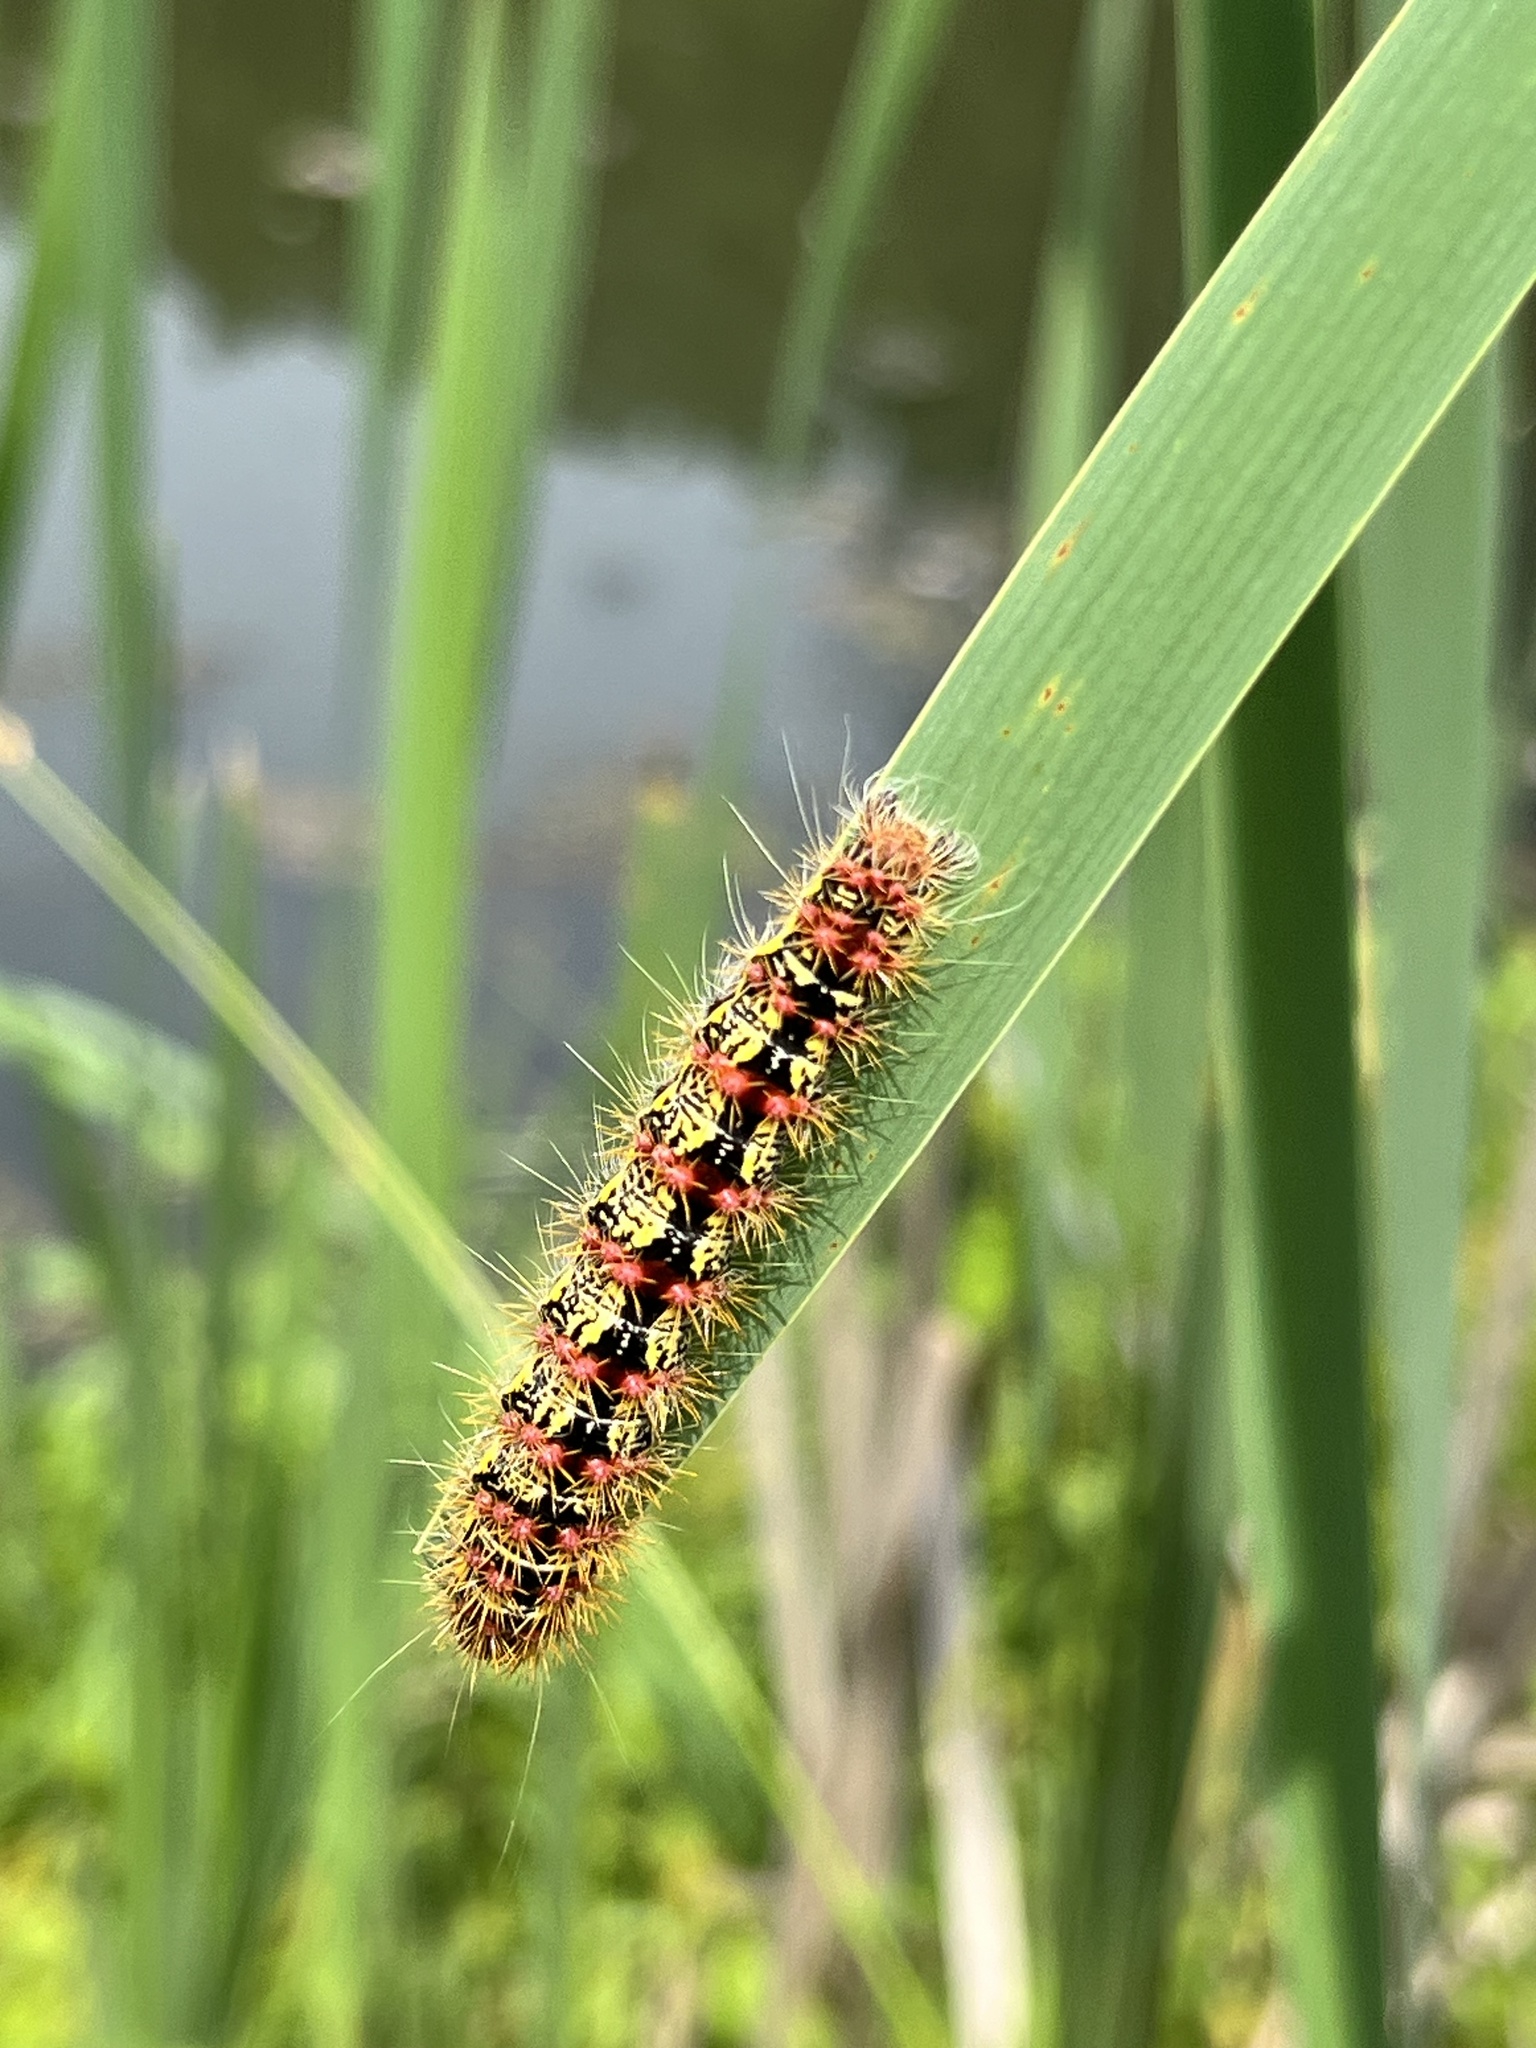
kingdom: Animalia
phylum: Arthropoda
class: Insecta
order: Lepidoptera
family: Noctuidae
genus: Acronicta
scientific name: Acronicta oblinita
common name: Smeared dagger
